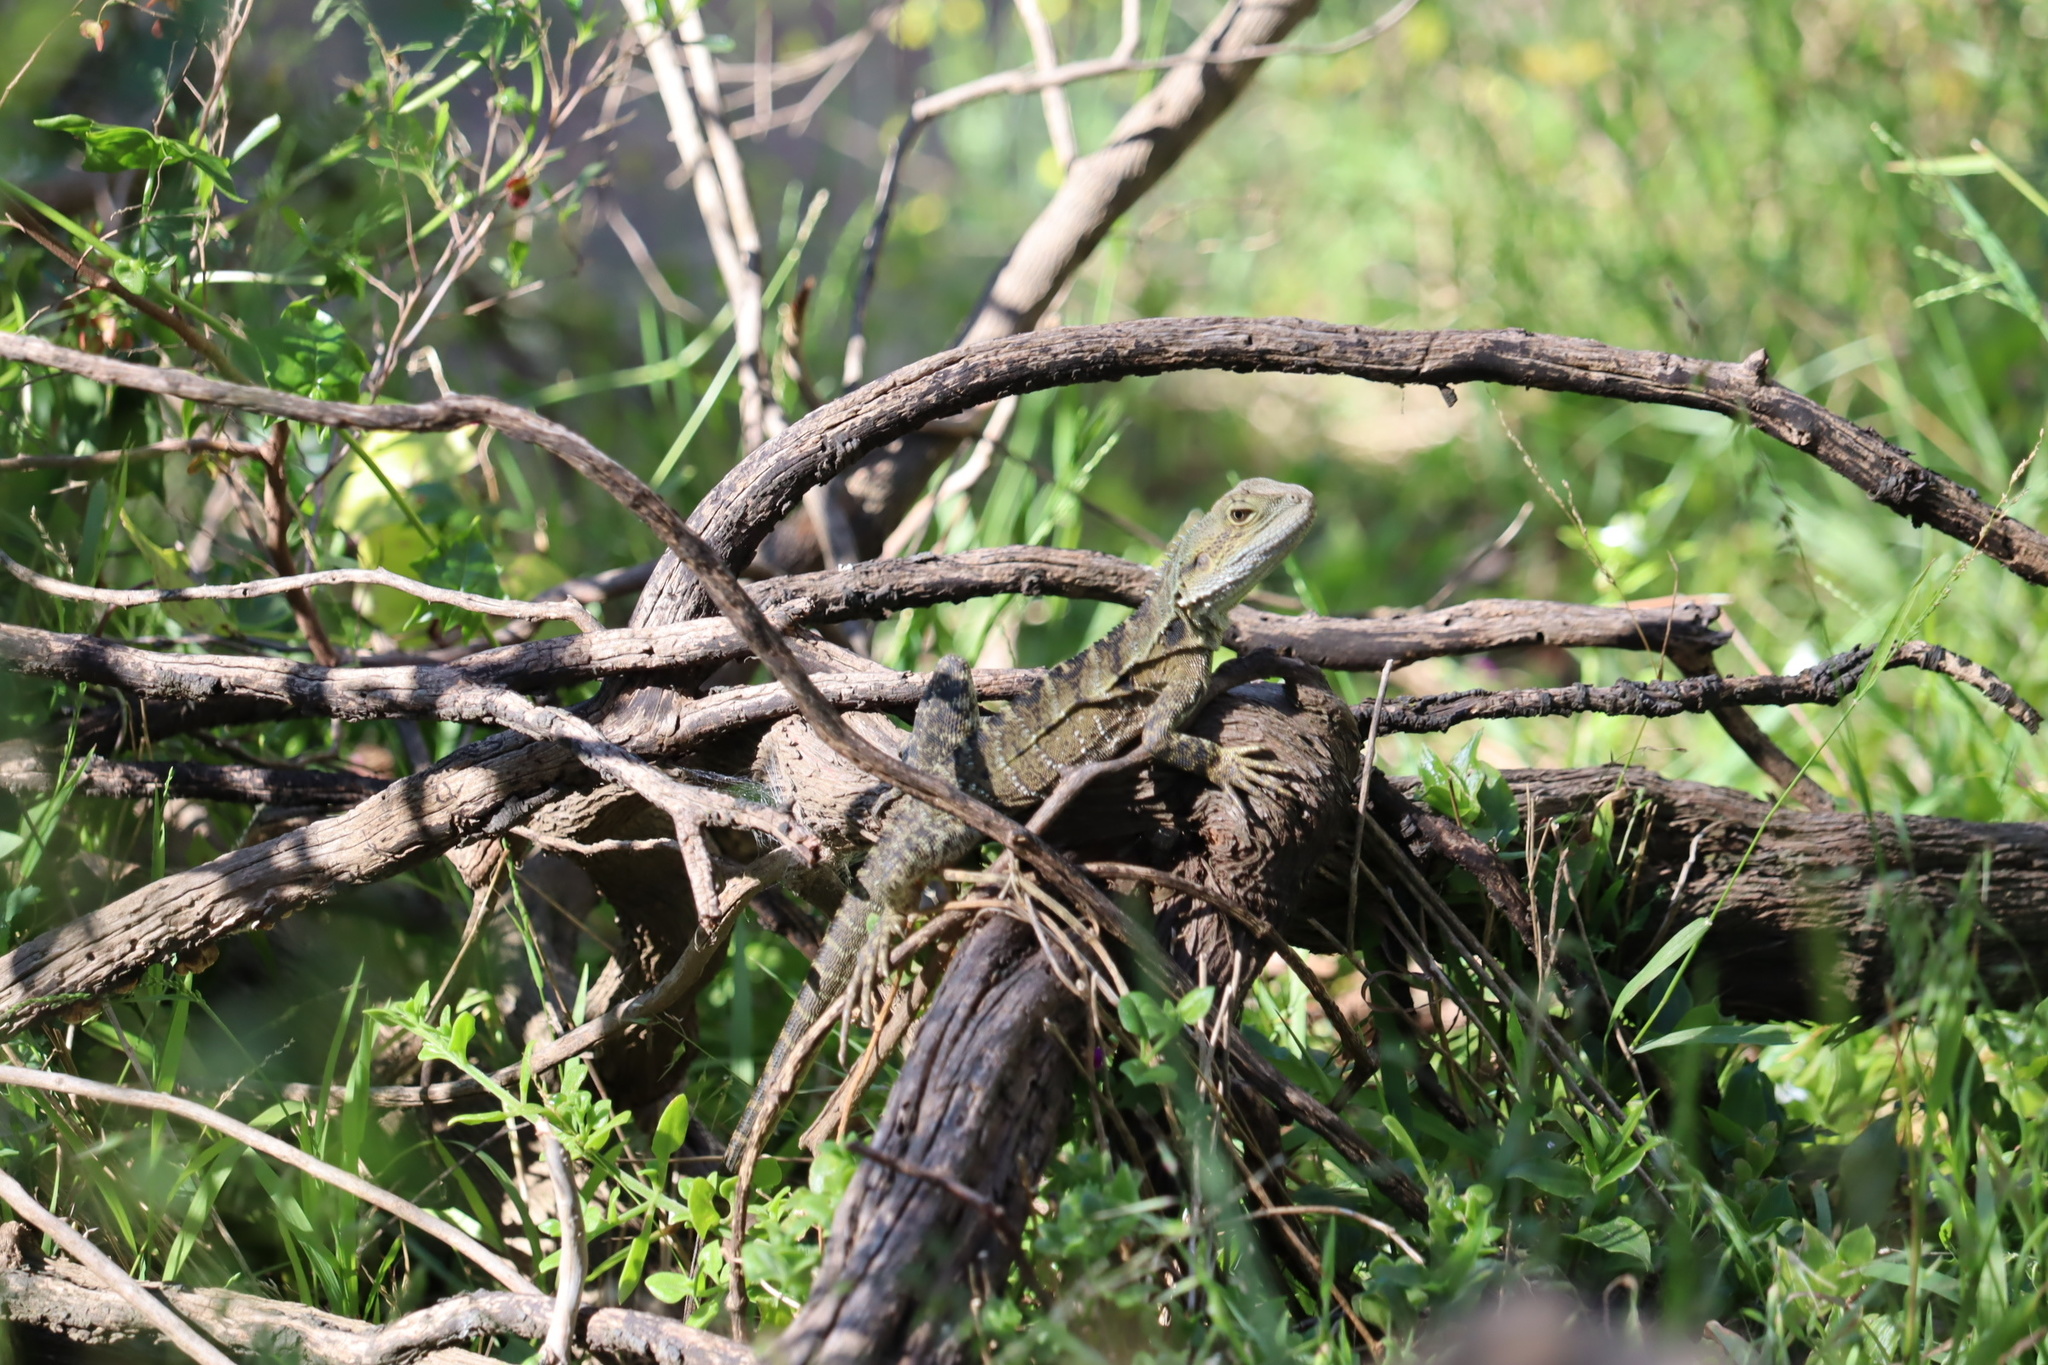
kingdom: Animalia
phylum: Chordata
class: Squamata
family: Agamidae
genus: Intellagama
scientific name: Intellagama lesueurii
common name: Eastern water dragon
